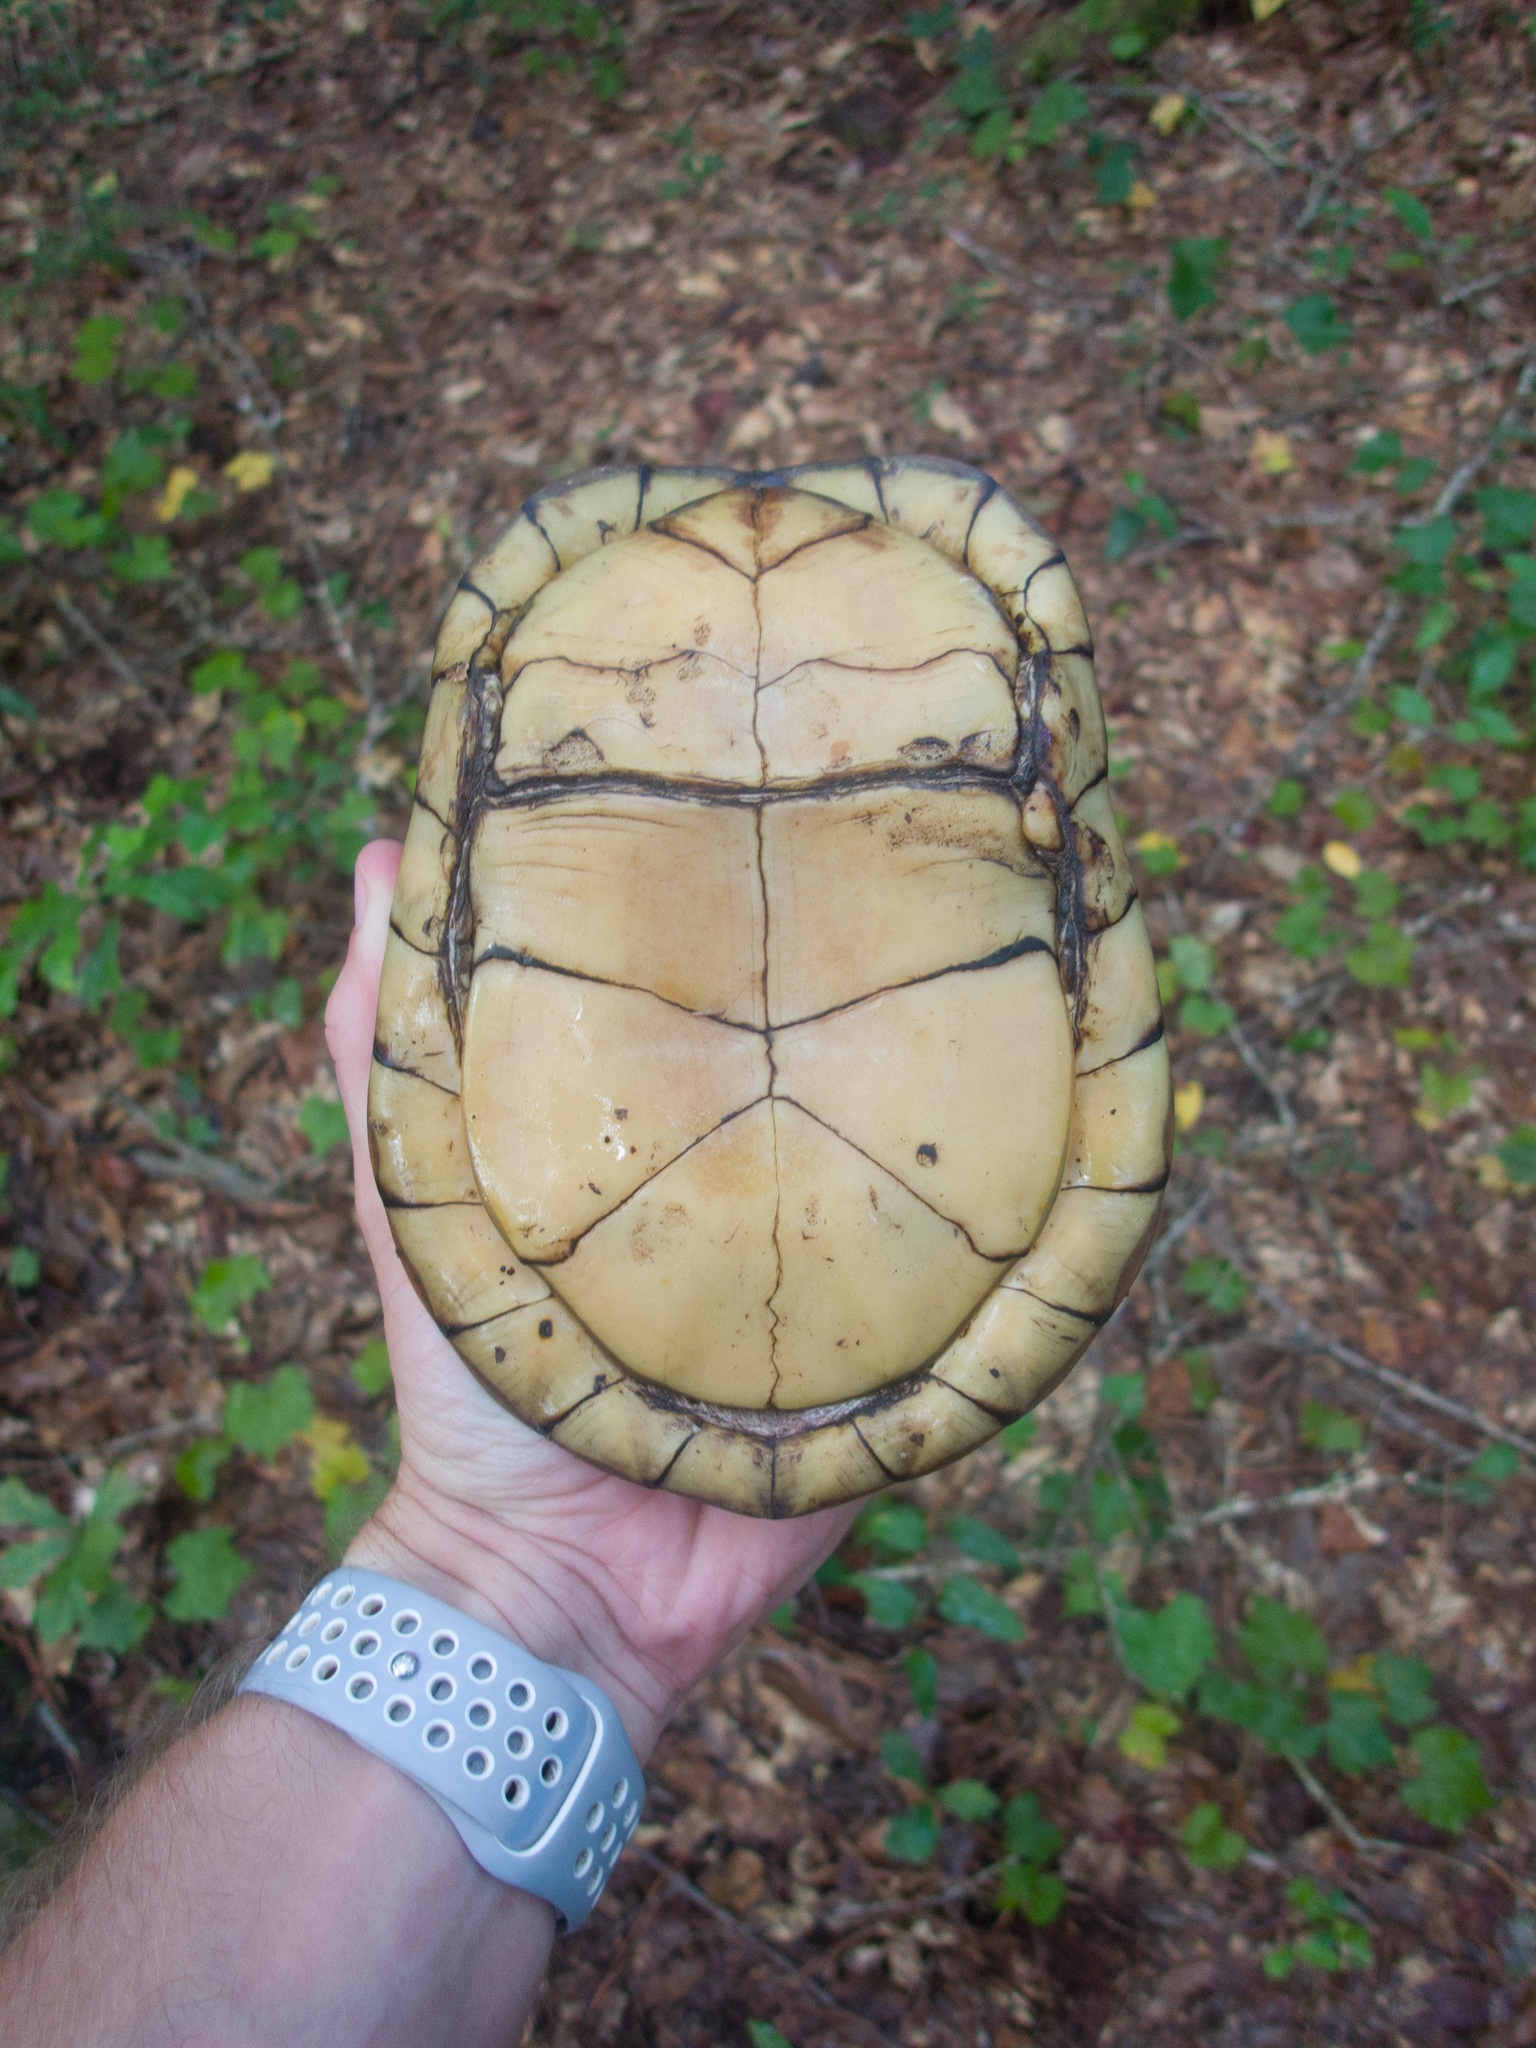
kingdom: Animalia
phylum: Chordata
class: Testudines
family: Emydidae
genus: Terrapene
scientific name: Terrapene carolina
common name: Common box turtle
